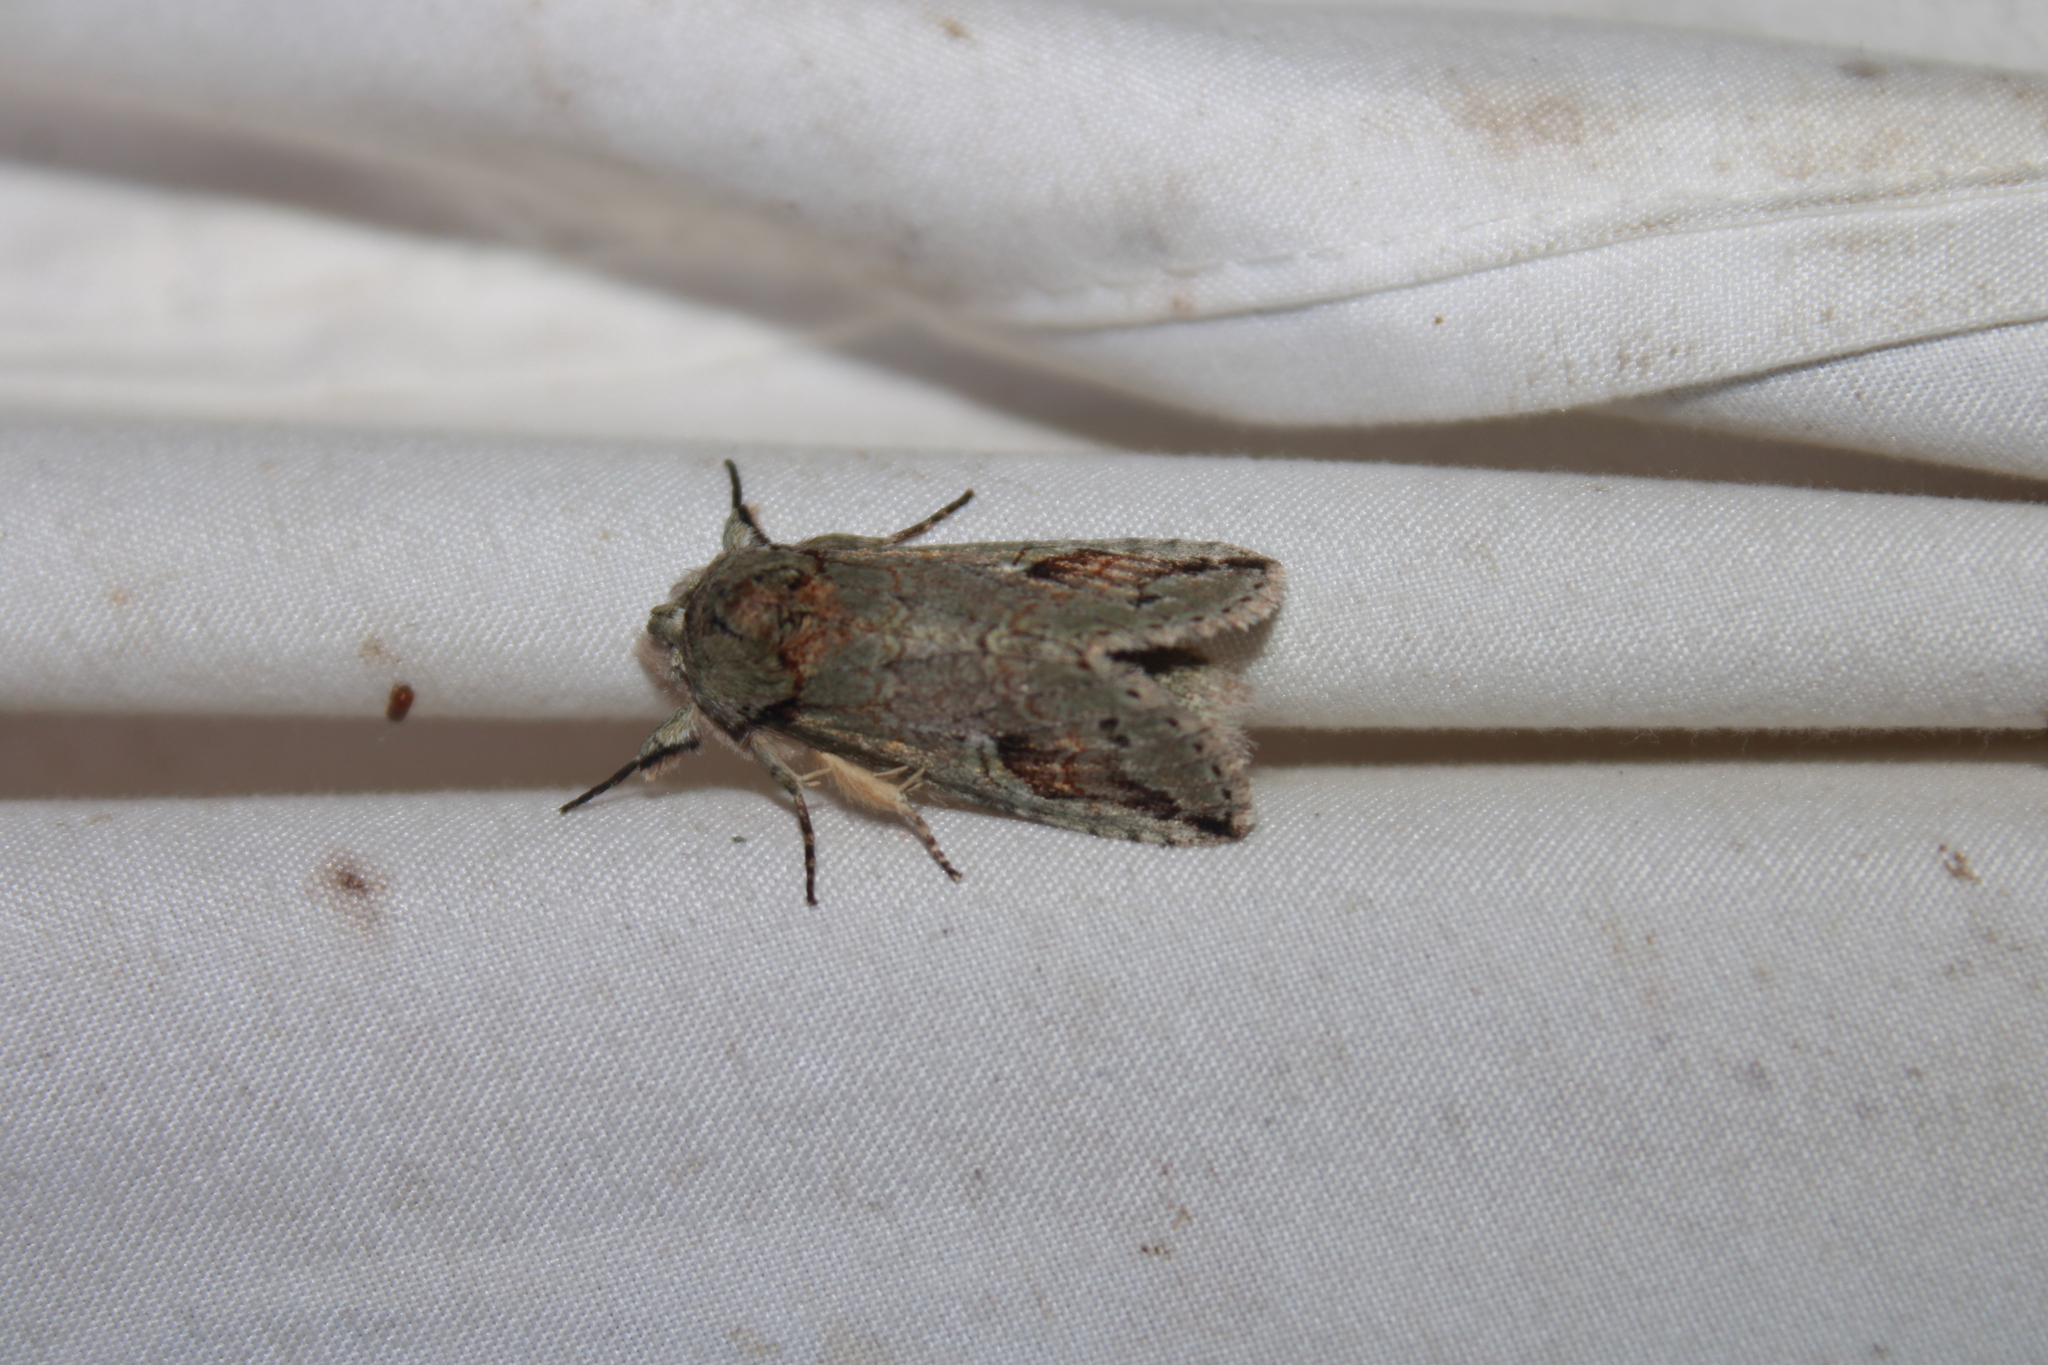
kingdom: Animalia
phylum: Arthropoda
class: Insecta
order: Lepidoptera
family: Notodontidae
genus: Macrurocampa
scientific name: Macrurocampa
